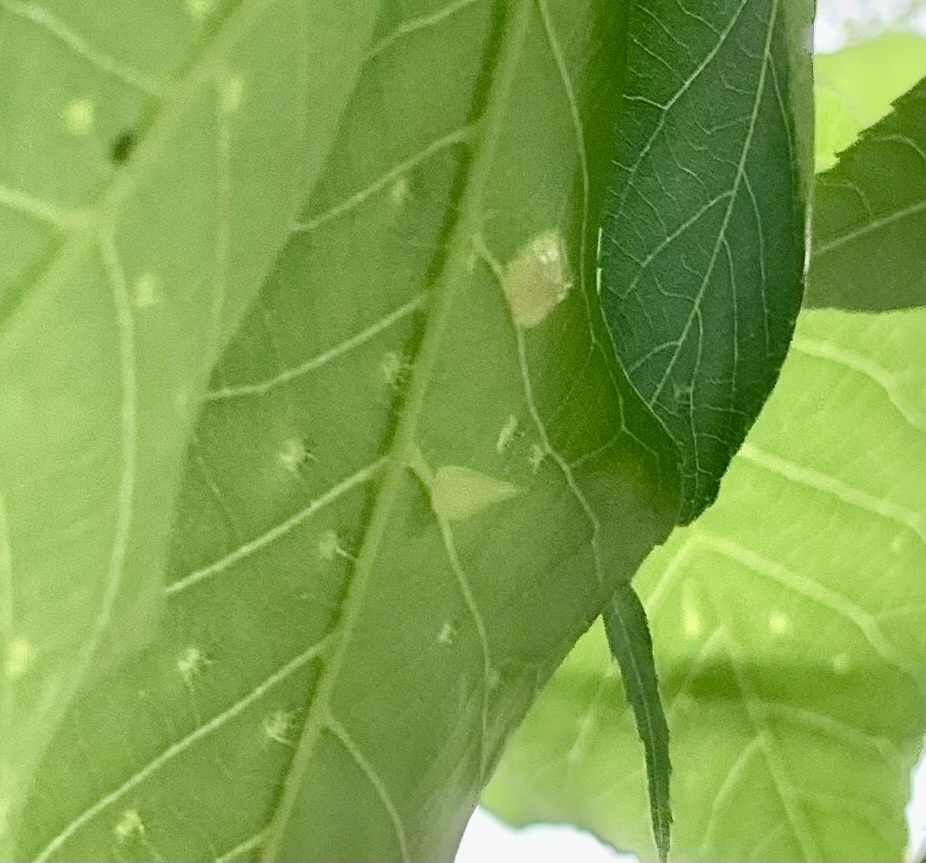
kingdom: Animalia
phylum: Arthropoda
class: Insecta
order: Diptera
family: Cecidomyiidae
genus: Caryomyia
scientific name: Caryomyia caryaecola
